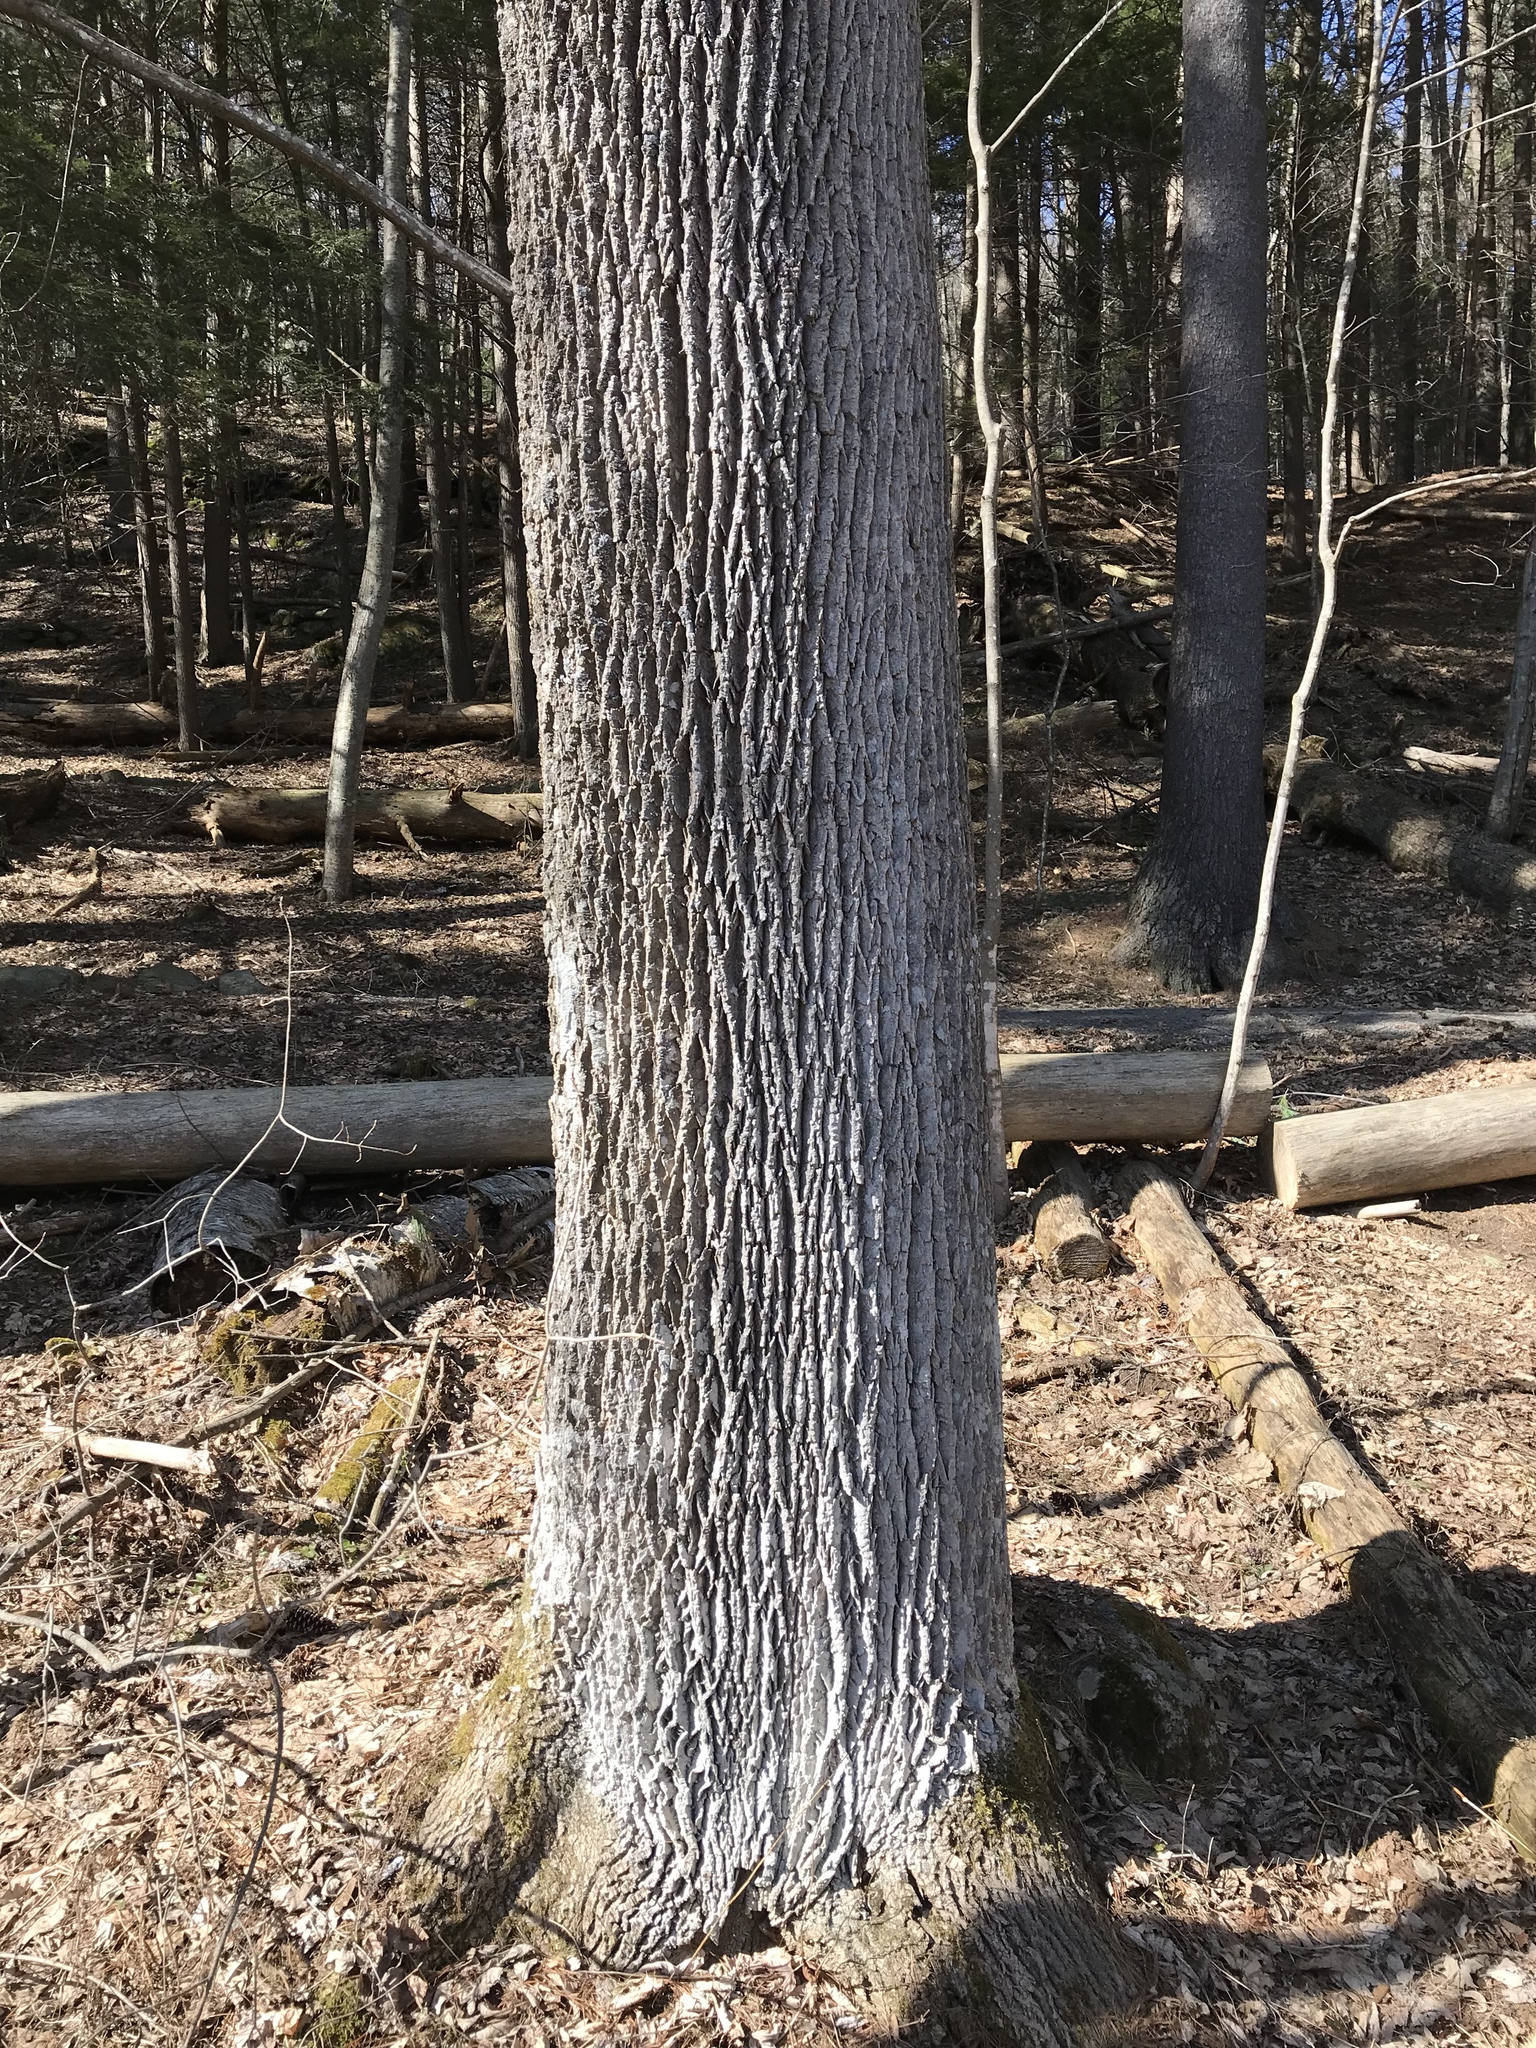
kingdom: Plantae
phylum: Tracheophyta
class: Magnoliopsida
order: Lamiales
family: Oleaceae
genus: Fraxinus
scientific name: Fraxinus americana
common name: White ash
